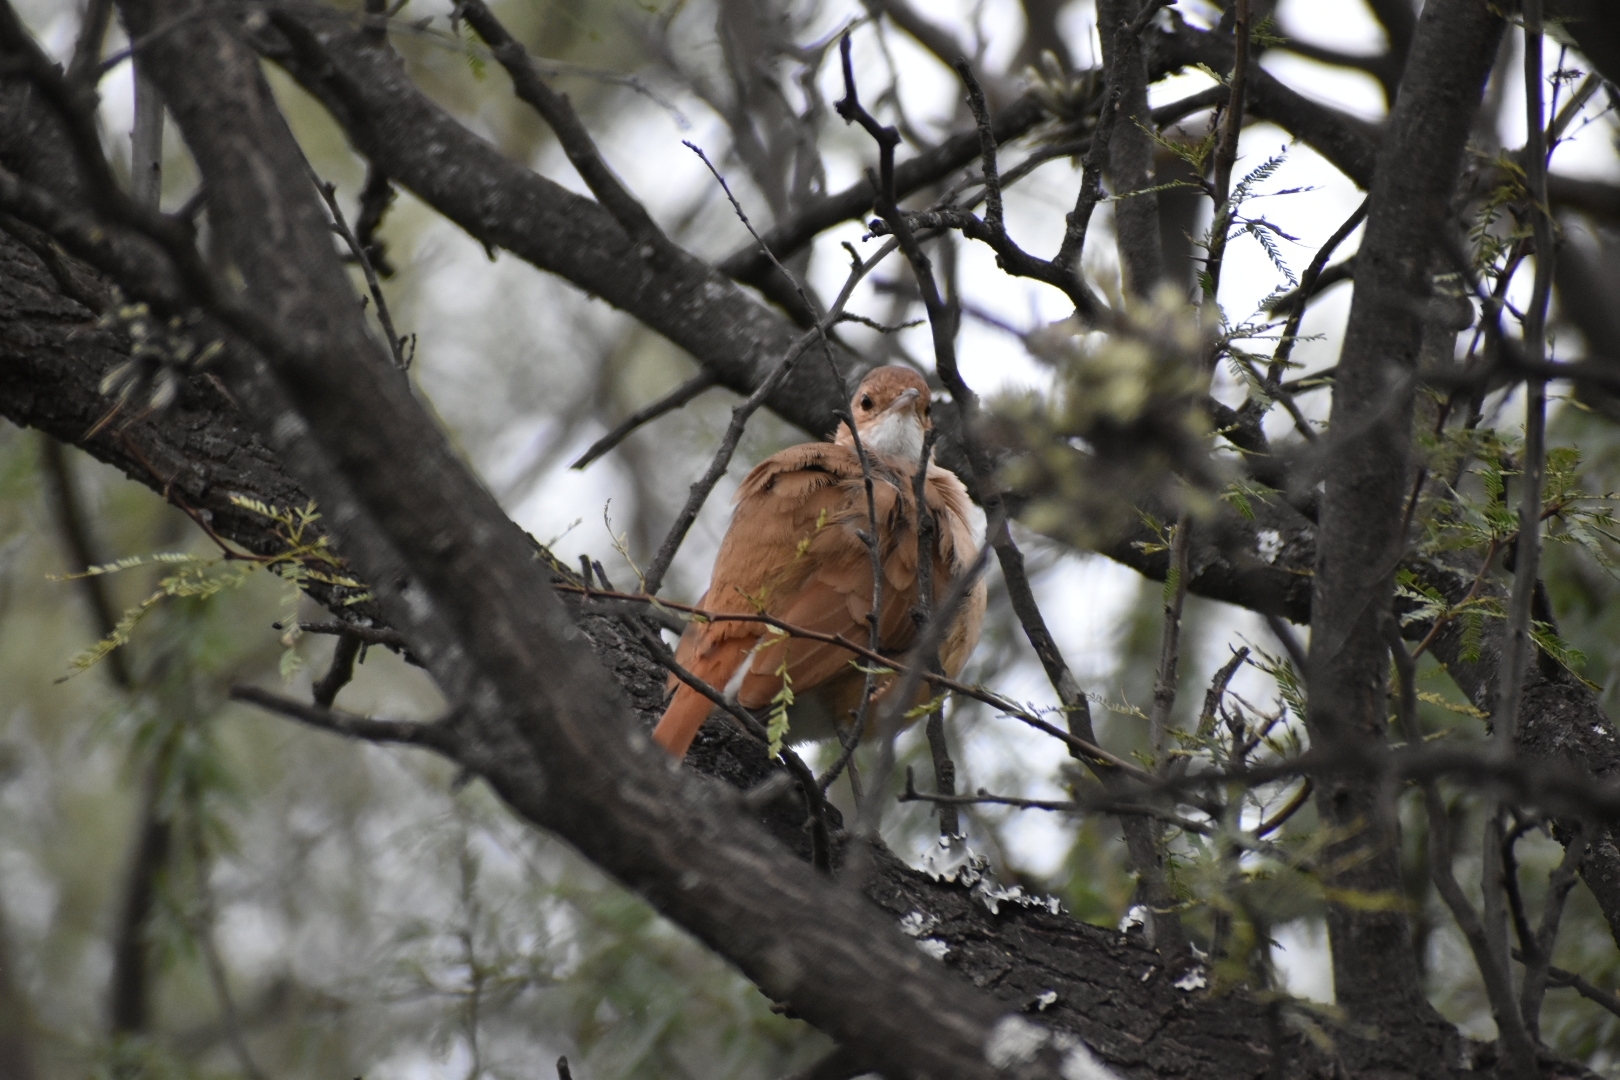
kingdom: Animalia
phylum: Chordata
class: Aves
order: Passeriformes
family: Furnariidae
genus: Furnarius
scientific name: Furnarius rufus
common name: Rufous hornero
